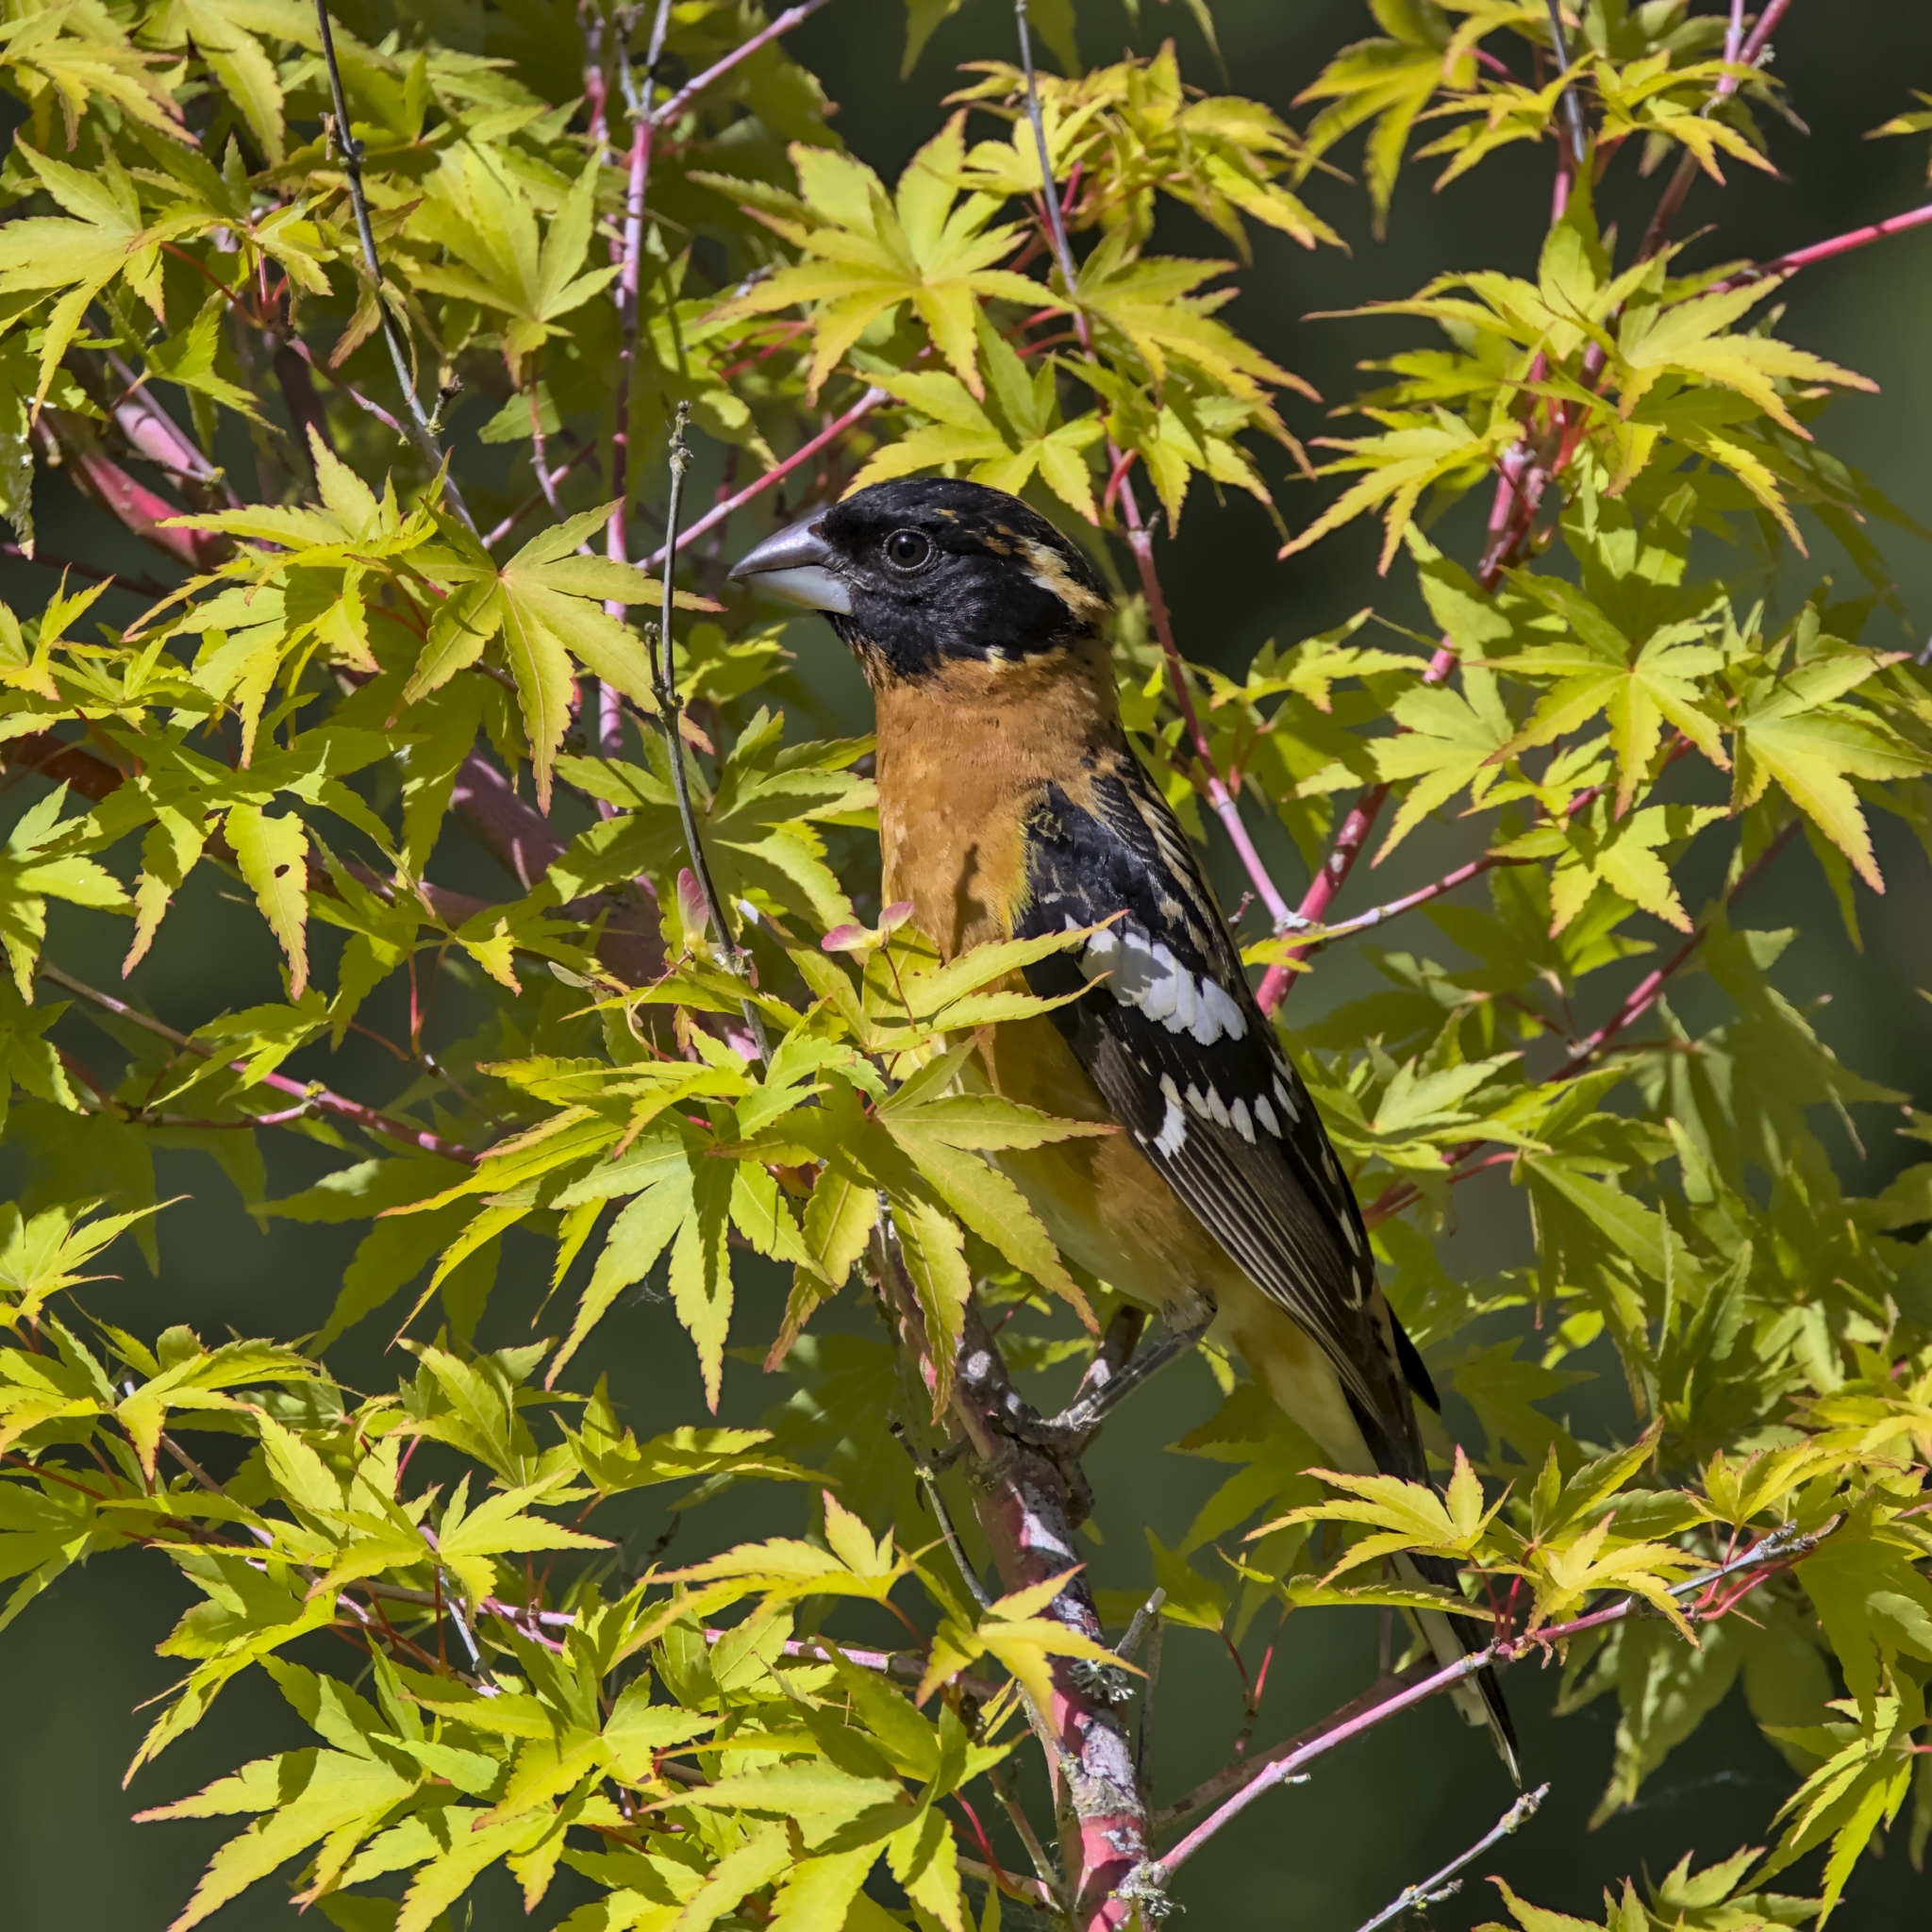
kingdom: Animalia
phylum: Chordata
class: Aves
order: Passeriformes
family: Cardinalidae
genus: Pheucticus
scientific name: Pheucticus melanocephalus
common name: Black-headed grosbeak
